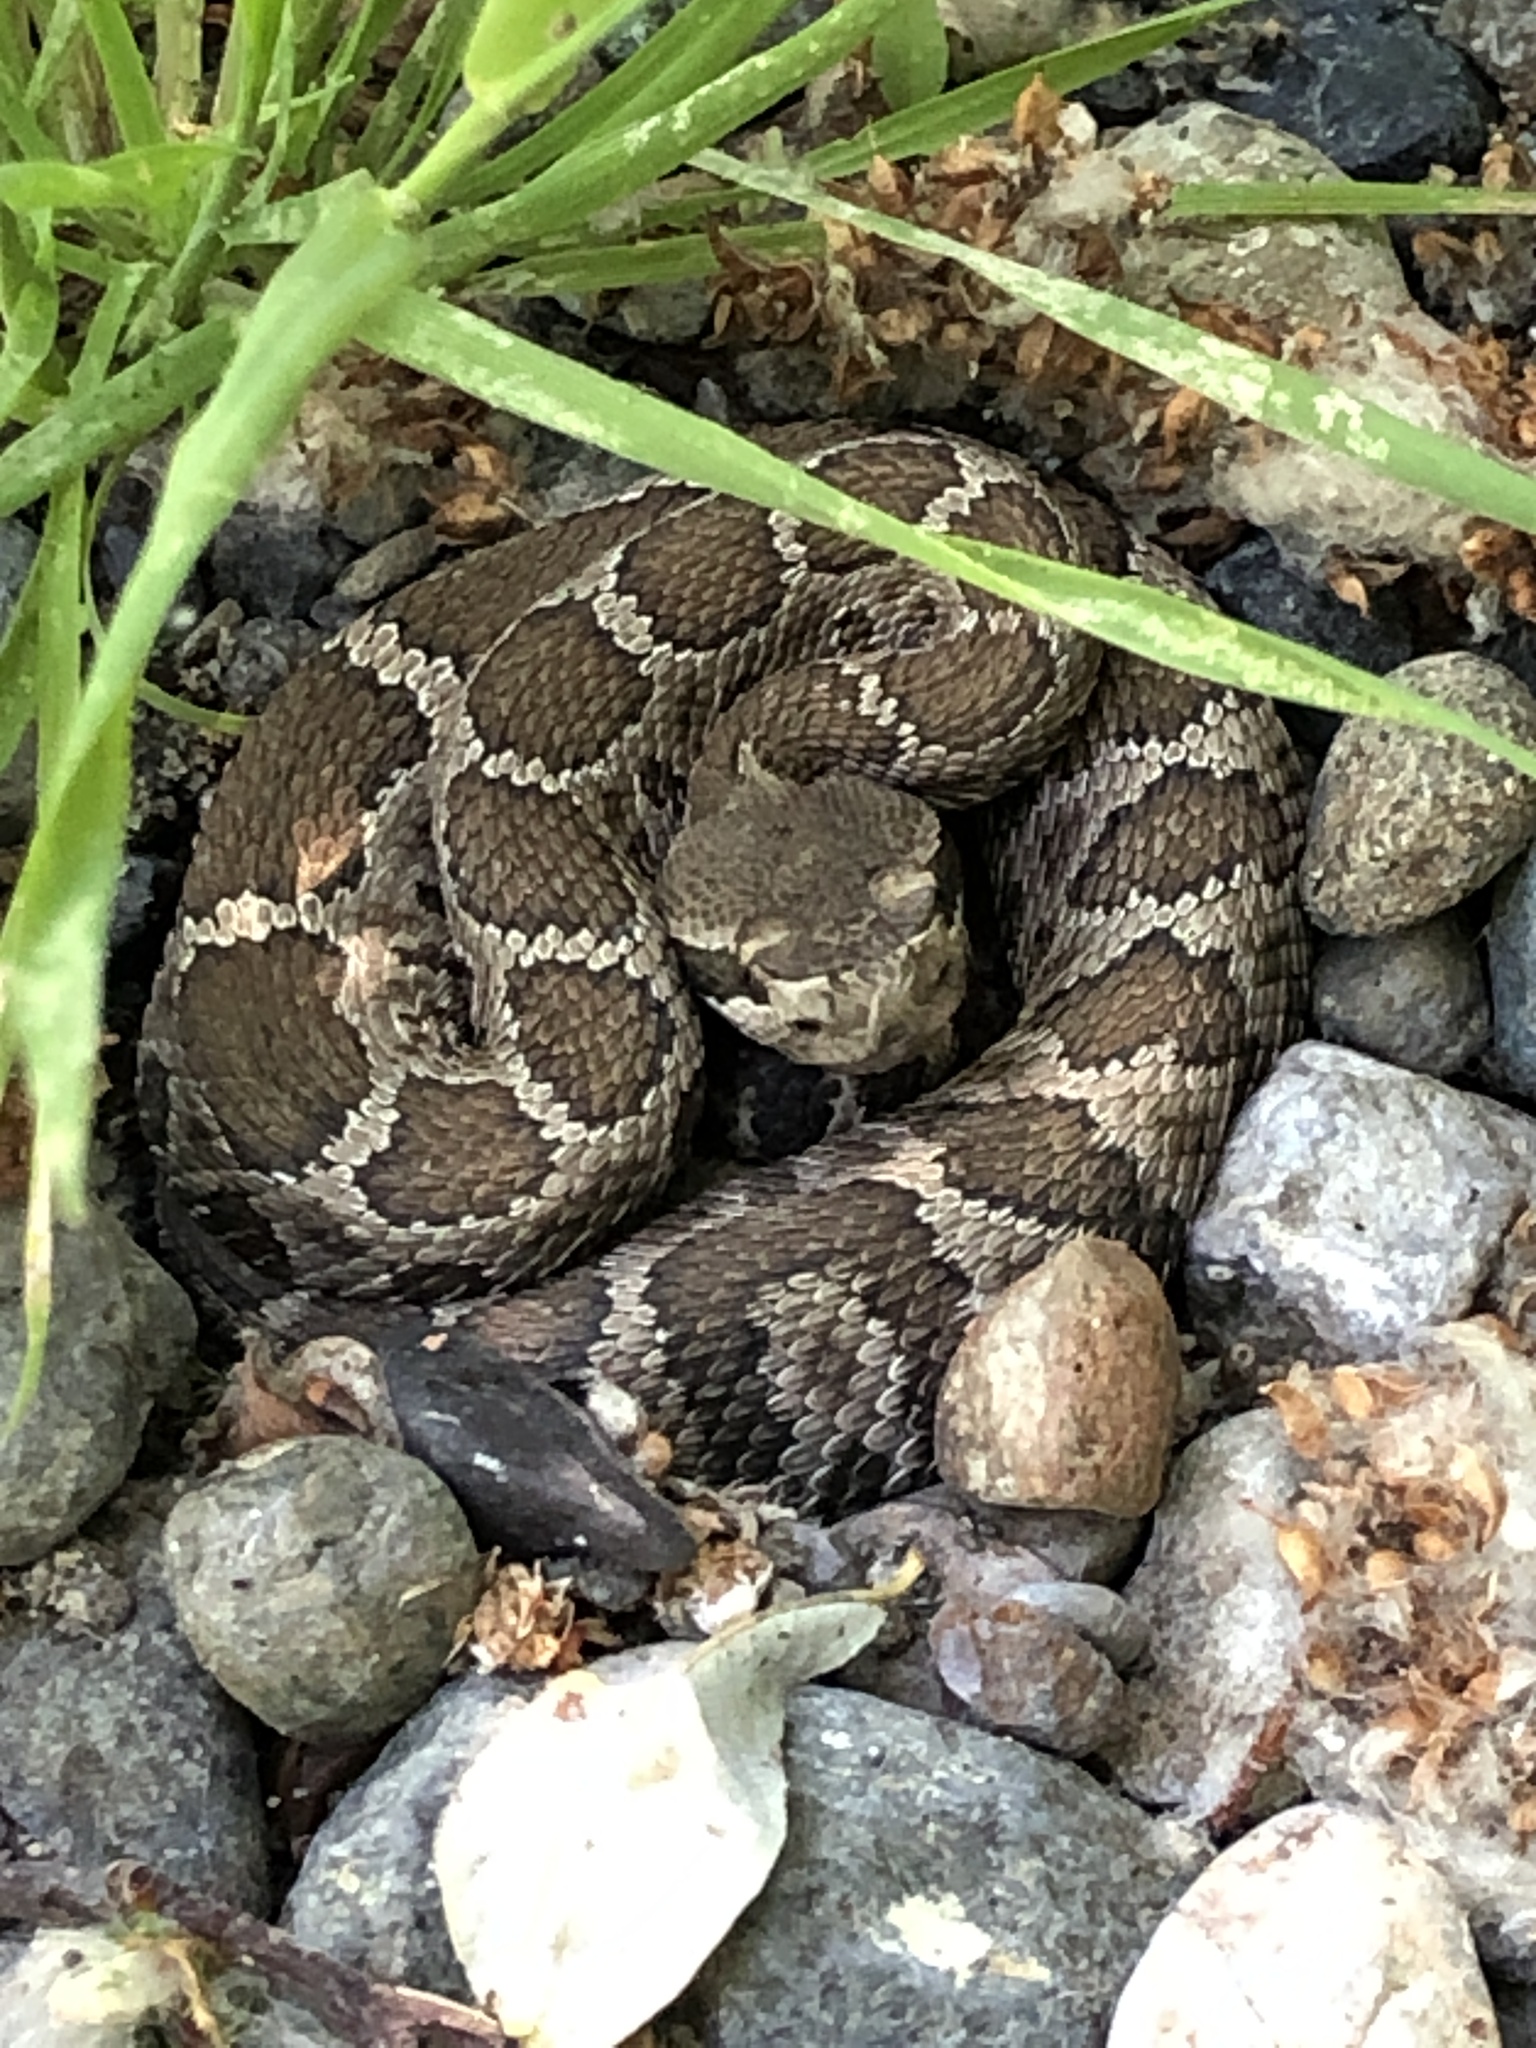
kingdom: Animalia
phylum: Chordata
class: Squamata
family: Viperidae
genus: Crotalus
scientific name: Crotalus oreganus
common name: Abyssus
